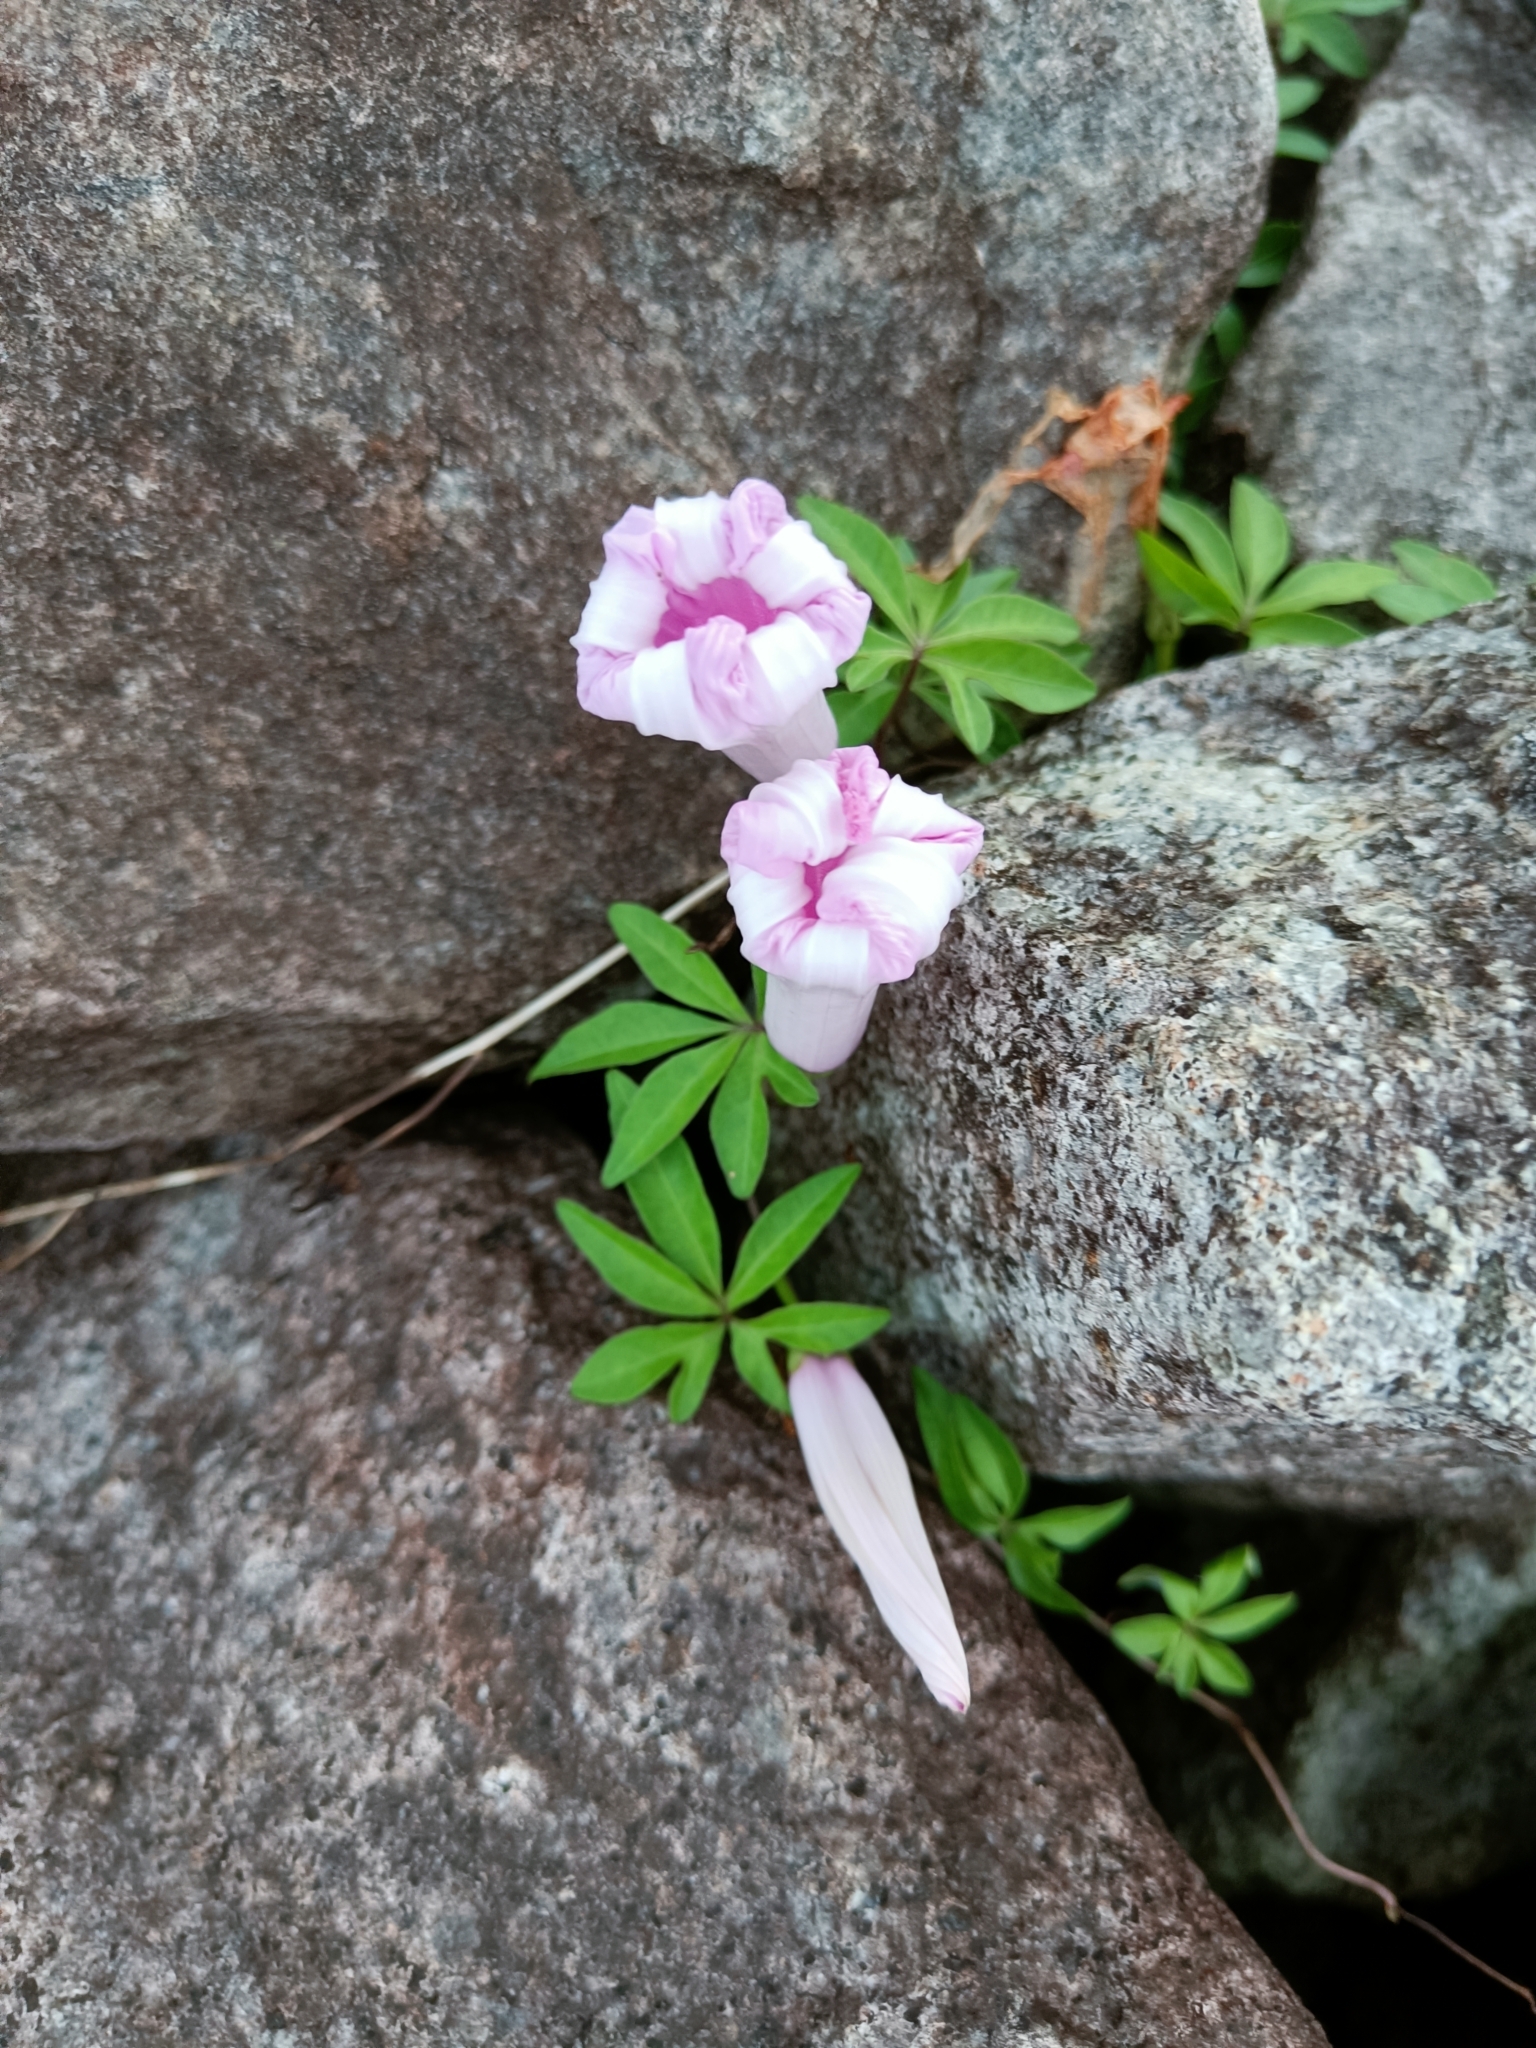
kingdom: Plantae
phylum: Tracheophyta
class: Magnoliopsida
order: Solanales
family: Convolvulaceae
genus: Ipomoea
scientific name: Ipomoea cairica
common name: Mile a minute vine
